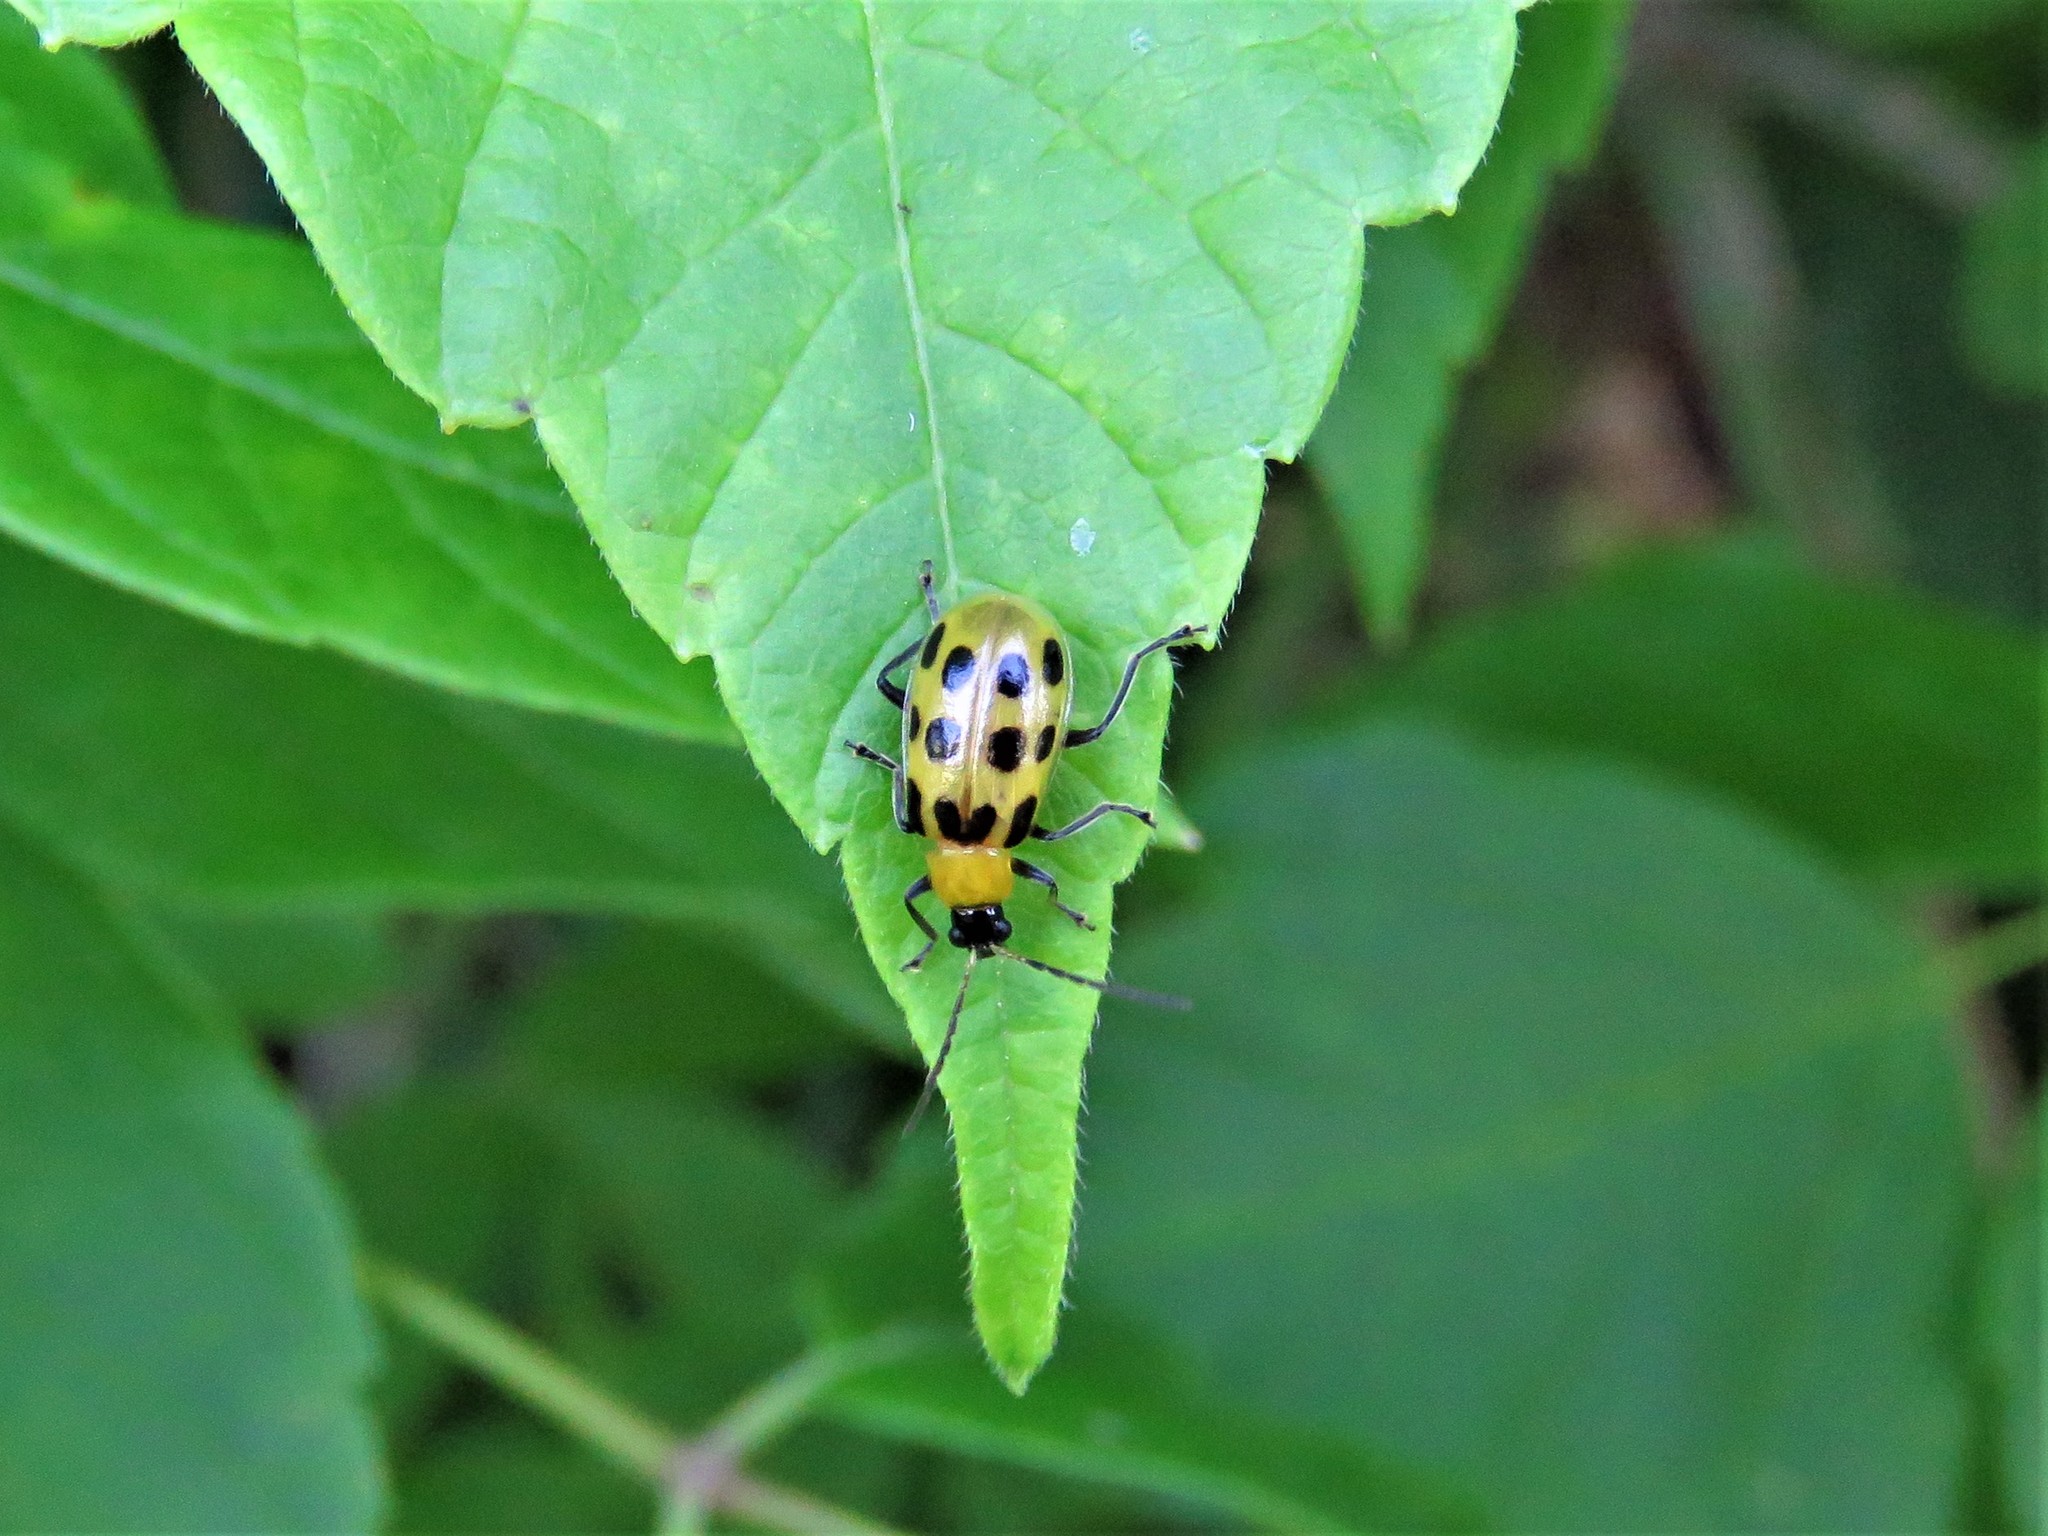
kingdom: Animalia
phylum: Arthropoda
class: Insecta
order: Coleoptera
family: Chrysomelidae
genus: Diabrotica
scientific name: Diabrotica undecimpunctata
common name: Spotted cucumber beetle
